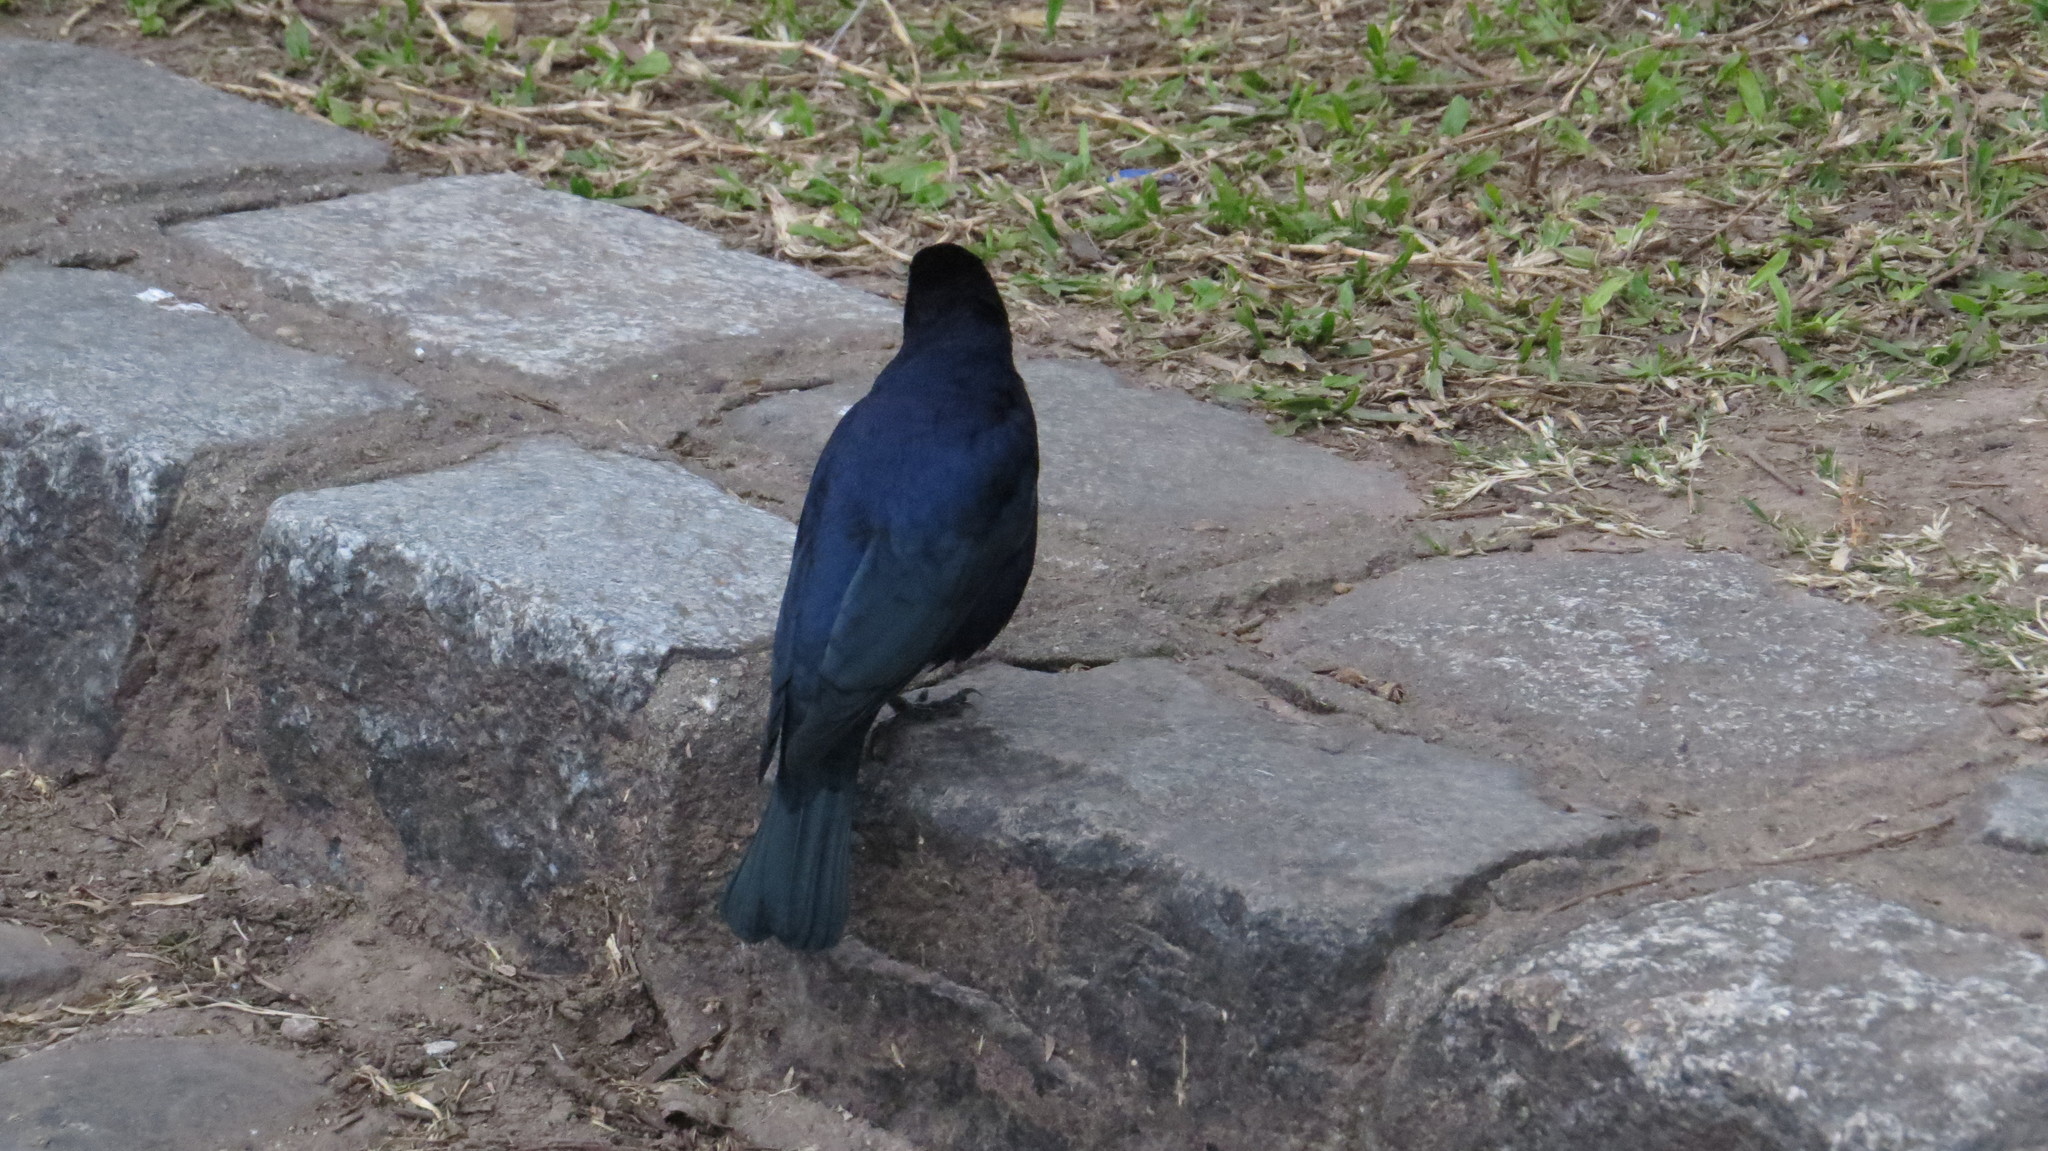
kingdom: Animalia
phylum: Chordata
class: Aves
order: Passeriformes
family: Icteridae
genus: Molothrus
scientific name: Molothrus bonariensis
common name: Shiny cowbird
